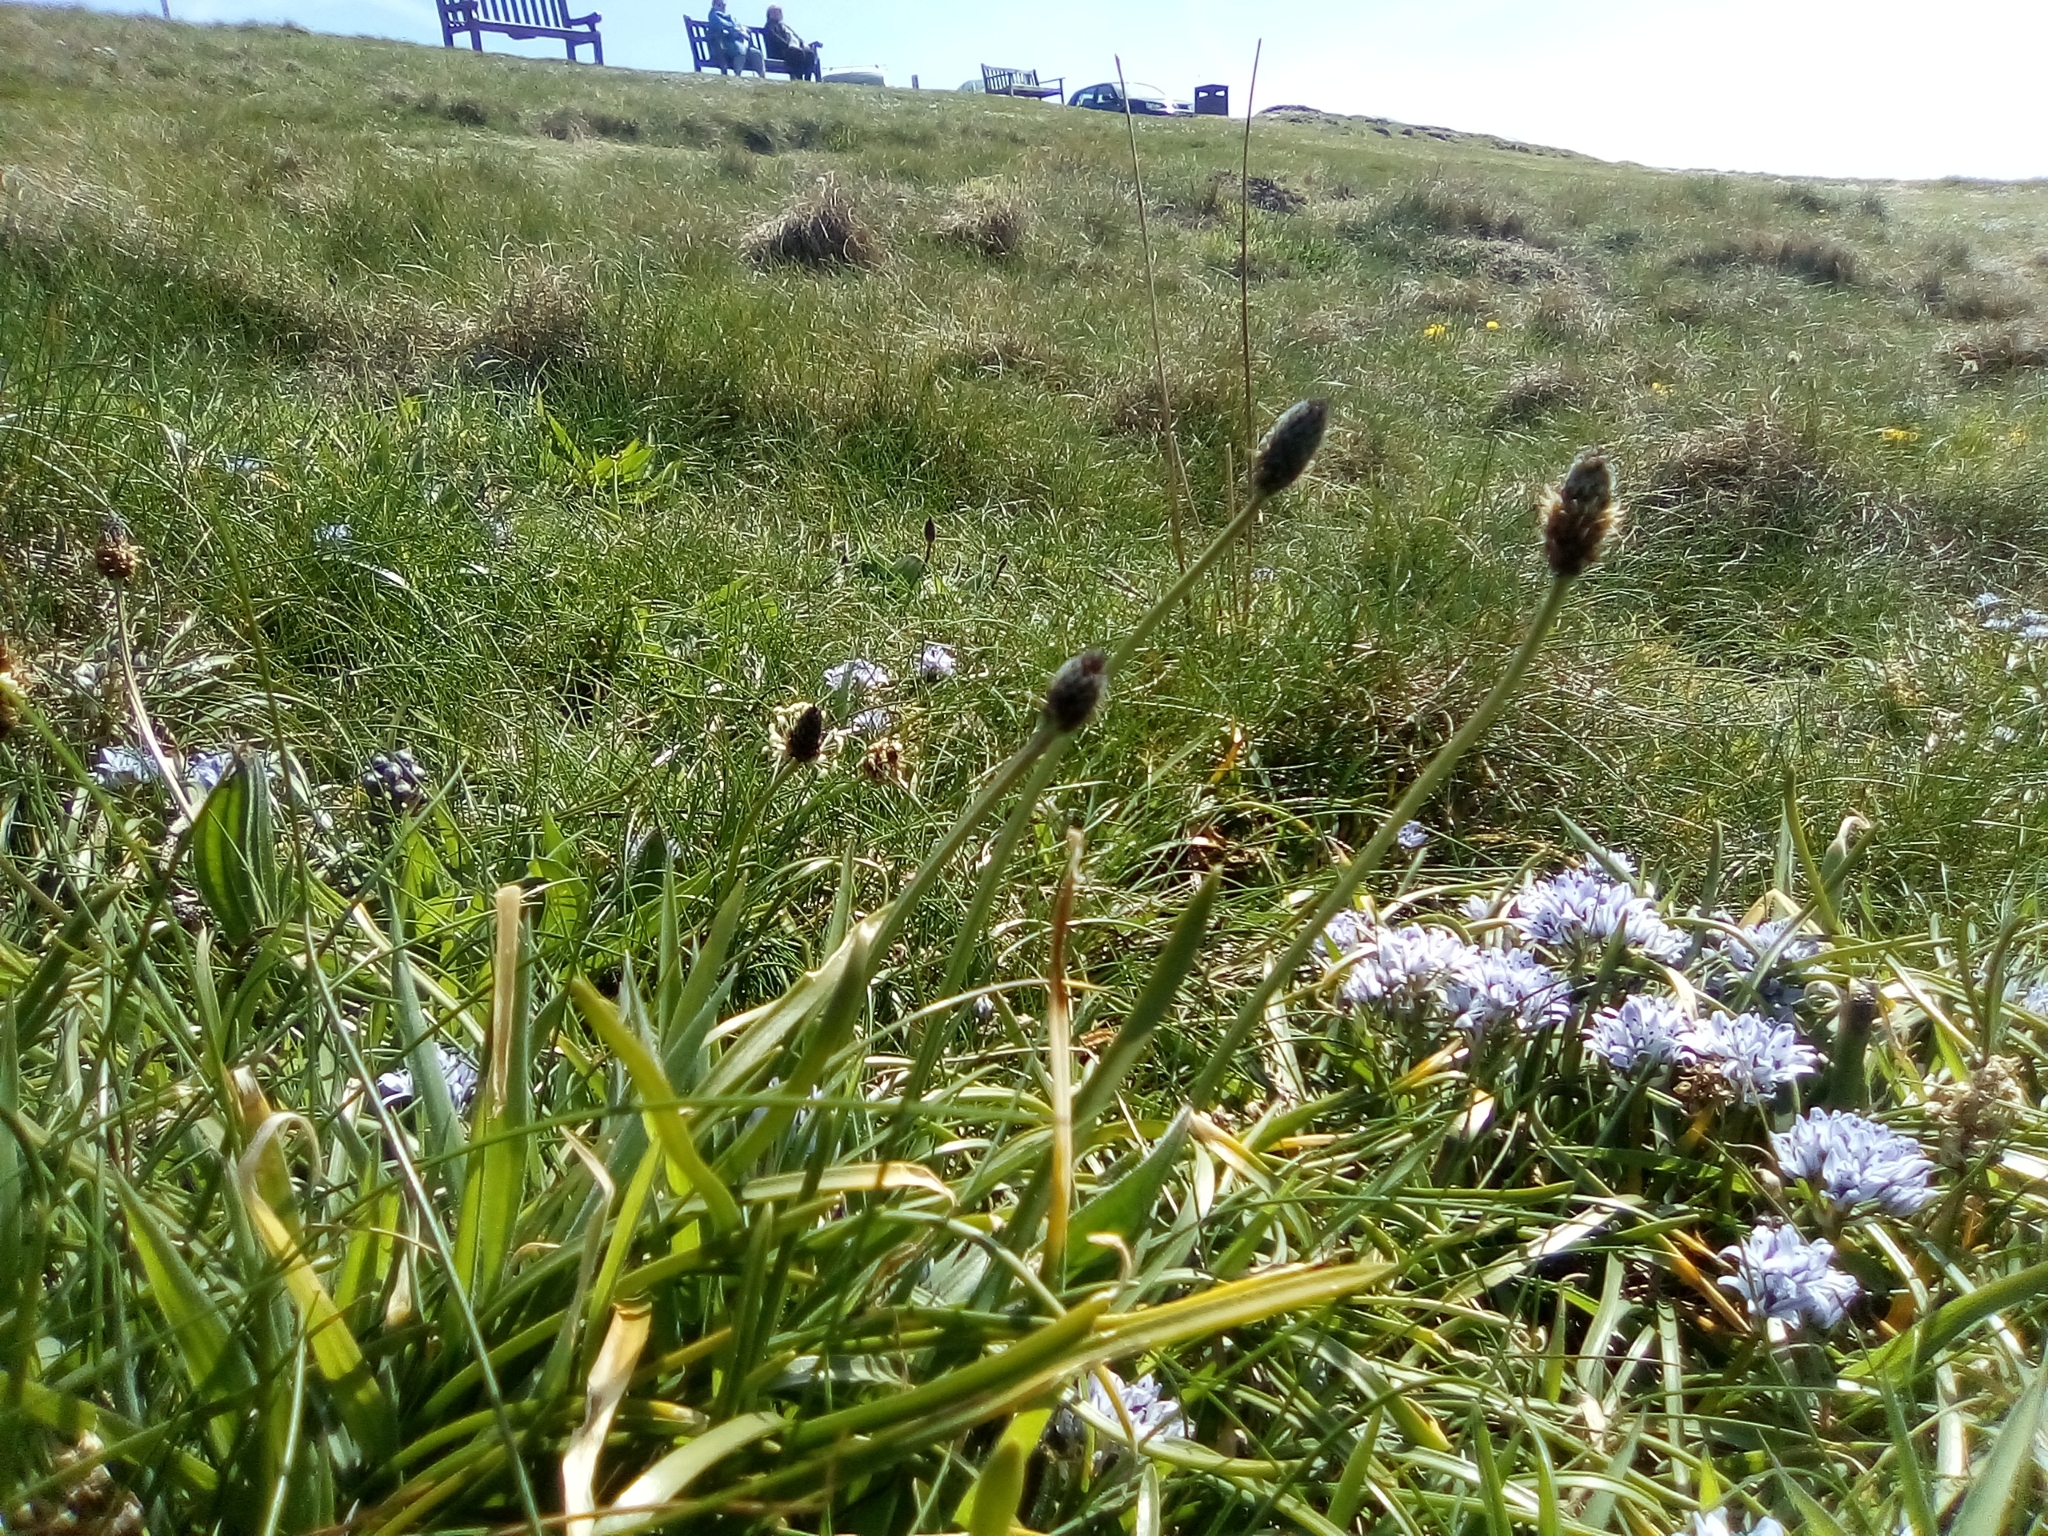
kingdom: Plantae
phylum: Tracheophyta
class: Magnoliopsida
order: Lamiales
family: Plantaginaceae
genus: Plantago
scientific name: Plantago lanceolata
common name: Ribwort plantain
